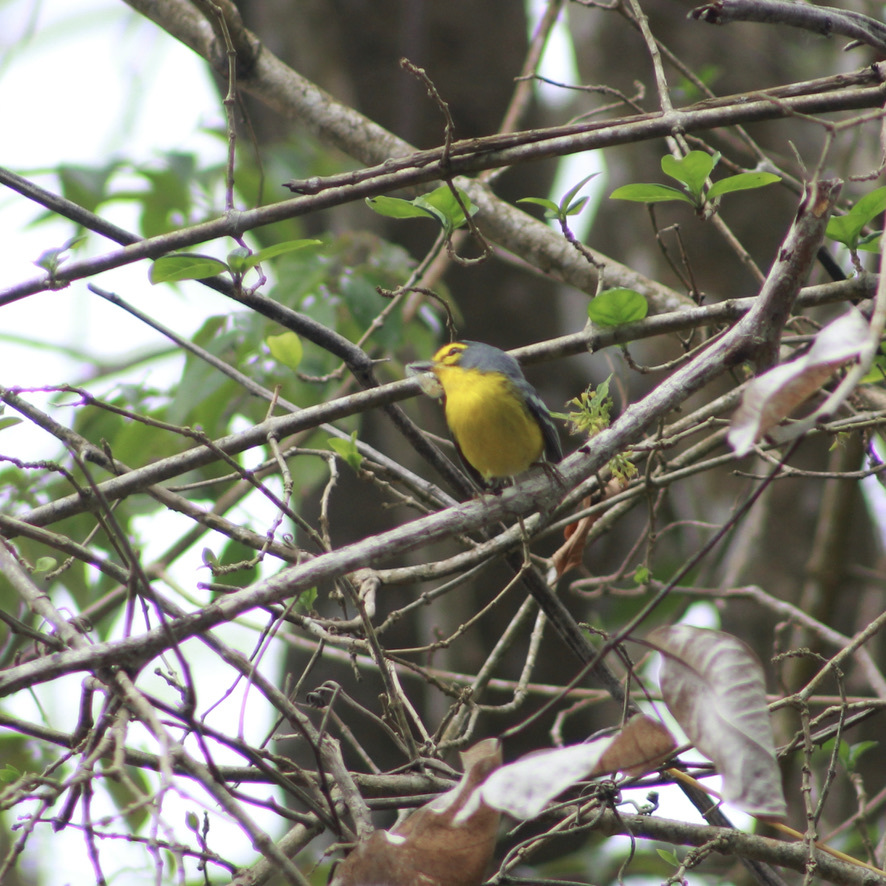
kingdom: Animalia
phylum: Chordata
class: Aves
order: Passeriformes
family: Parulidae
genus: Setophaga
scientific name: Setophaga delicata
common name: St. lucia warbler
